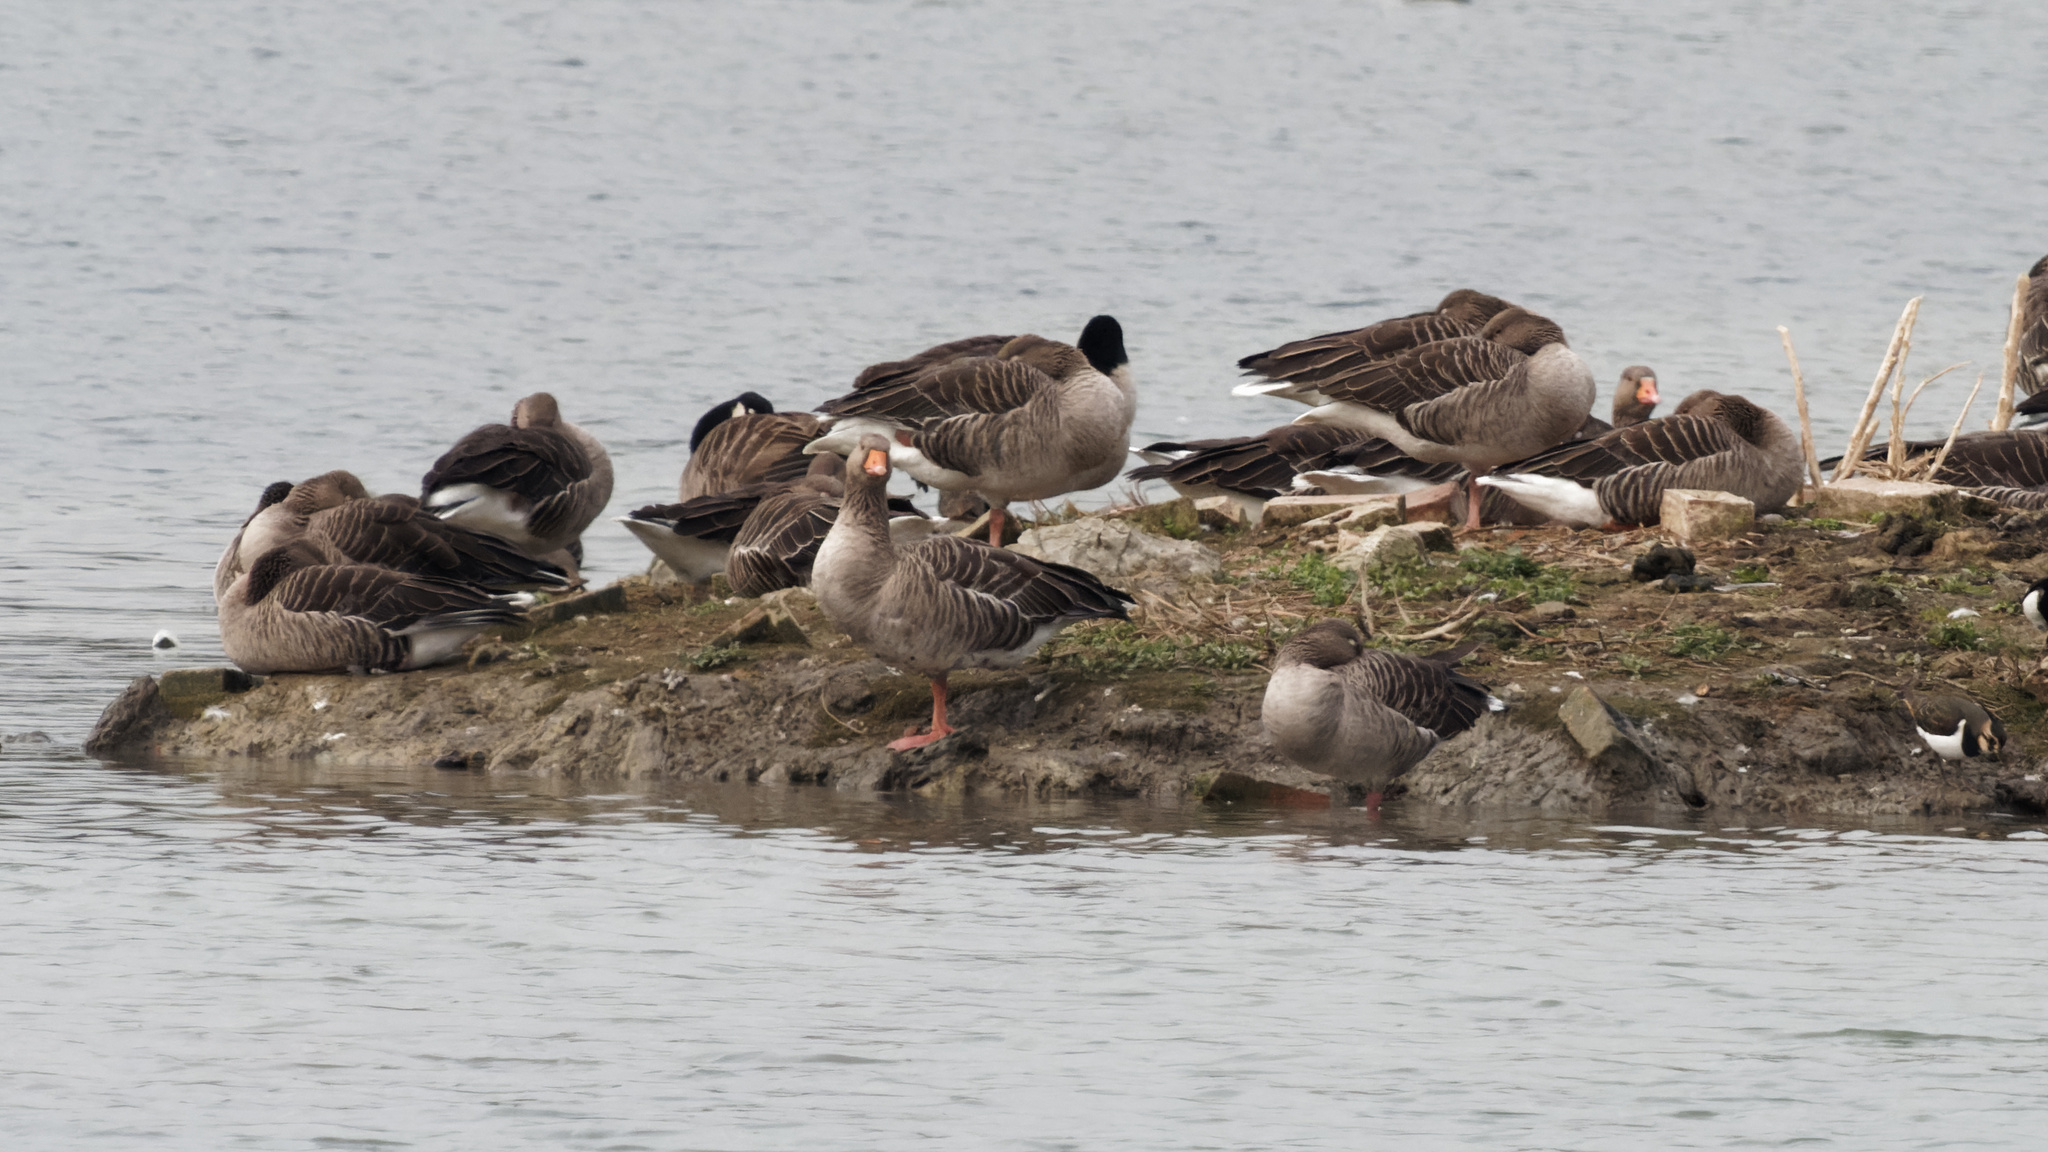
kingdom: Animalia
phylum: Chordata
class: Aves
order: Anseriformes
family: Anatidae
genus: Anser
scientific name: Anser anser
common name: Greylag goose
